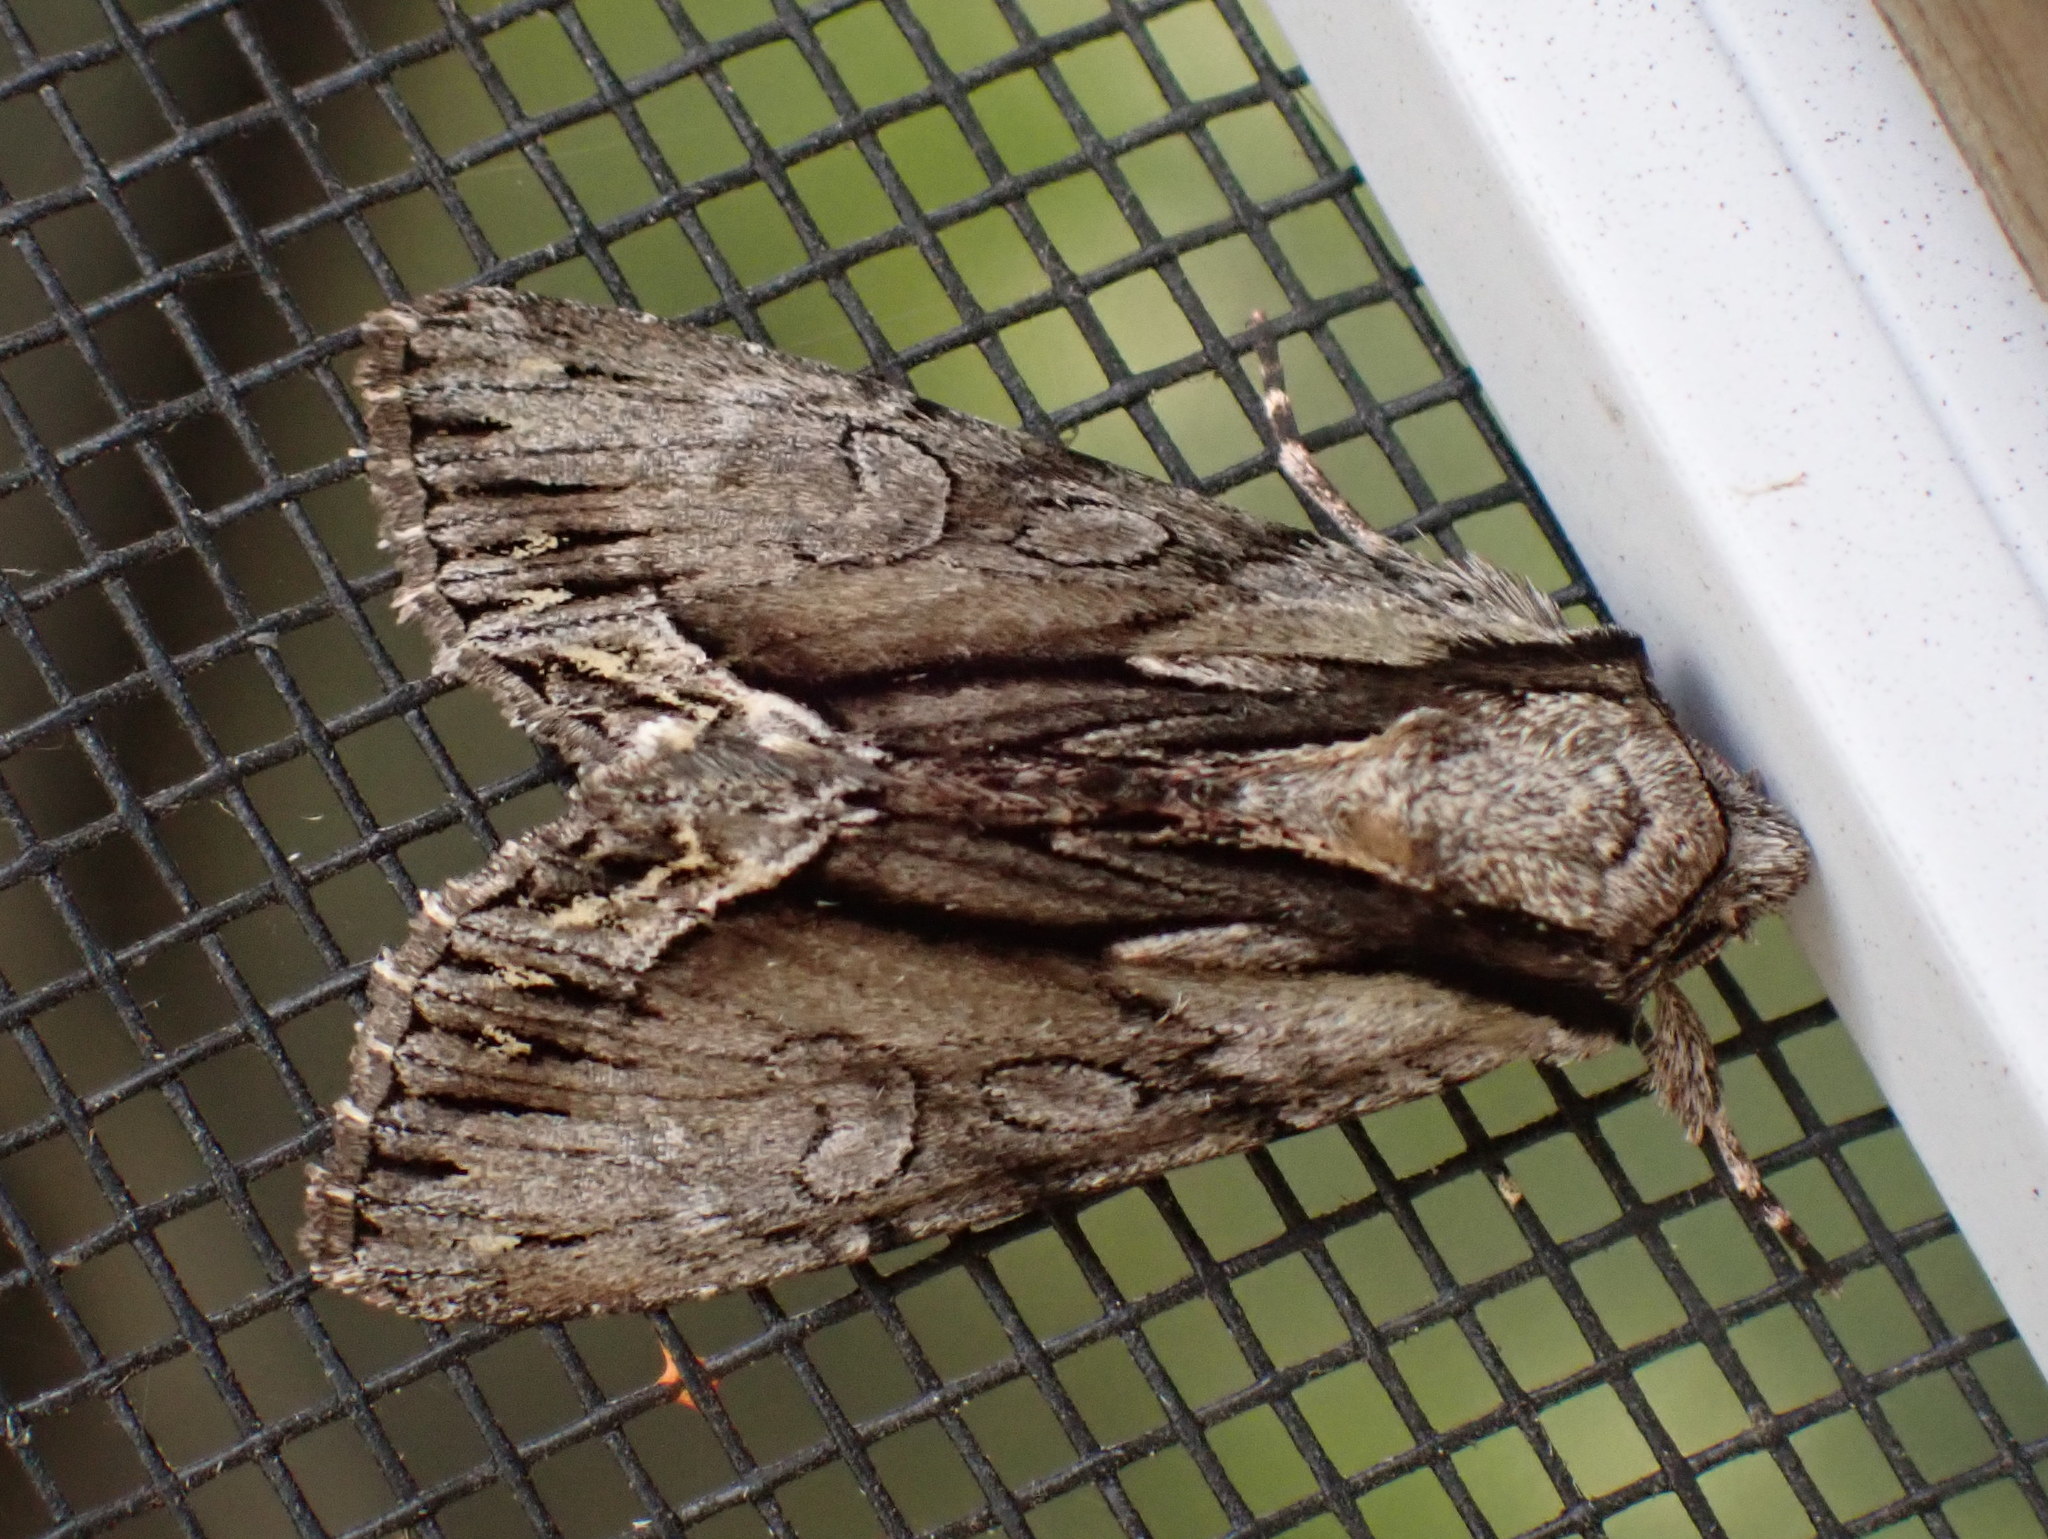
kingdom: Animalia
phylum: Arthropoda
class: Insecta
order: Lepidoptera
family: Noctuidae
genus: Hyppa
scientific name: Hyppa xylinoides
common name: Common hyppa moth
